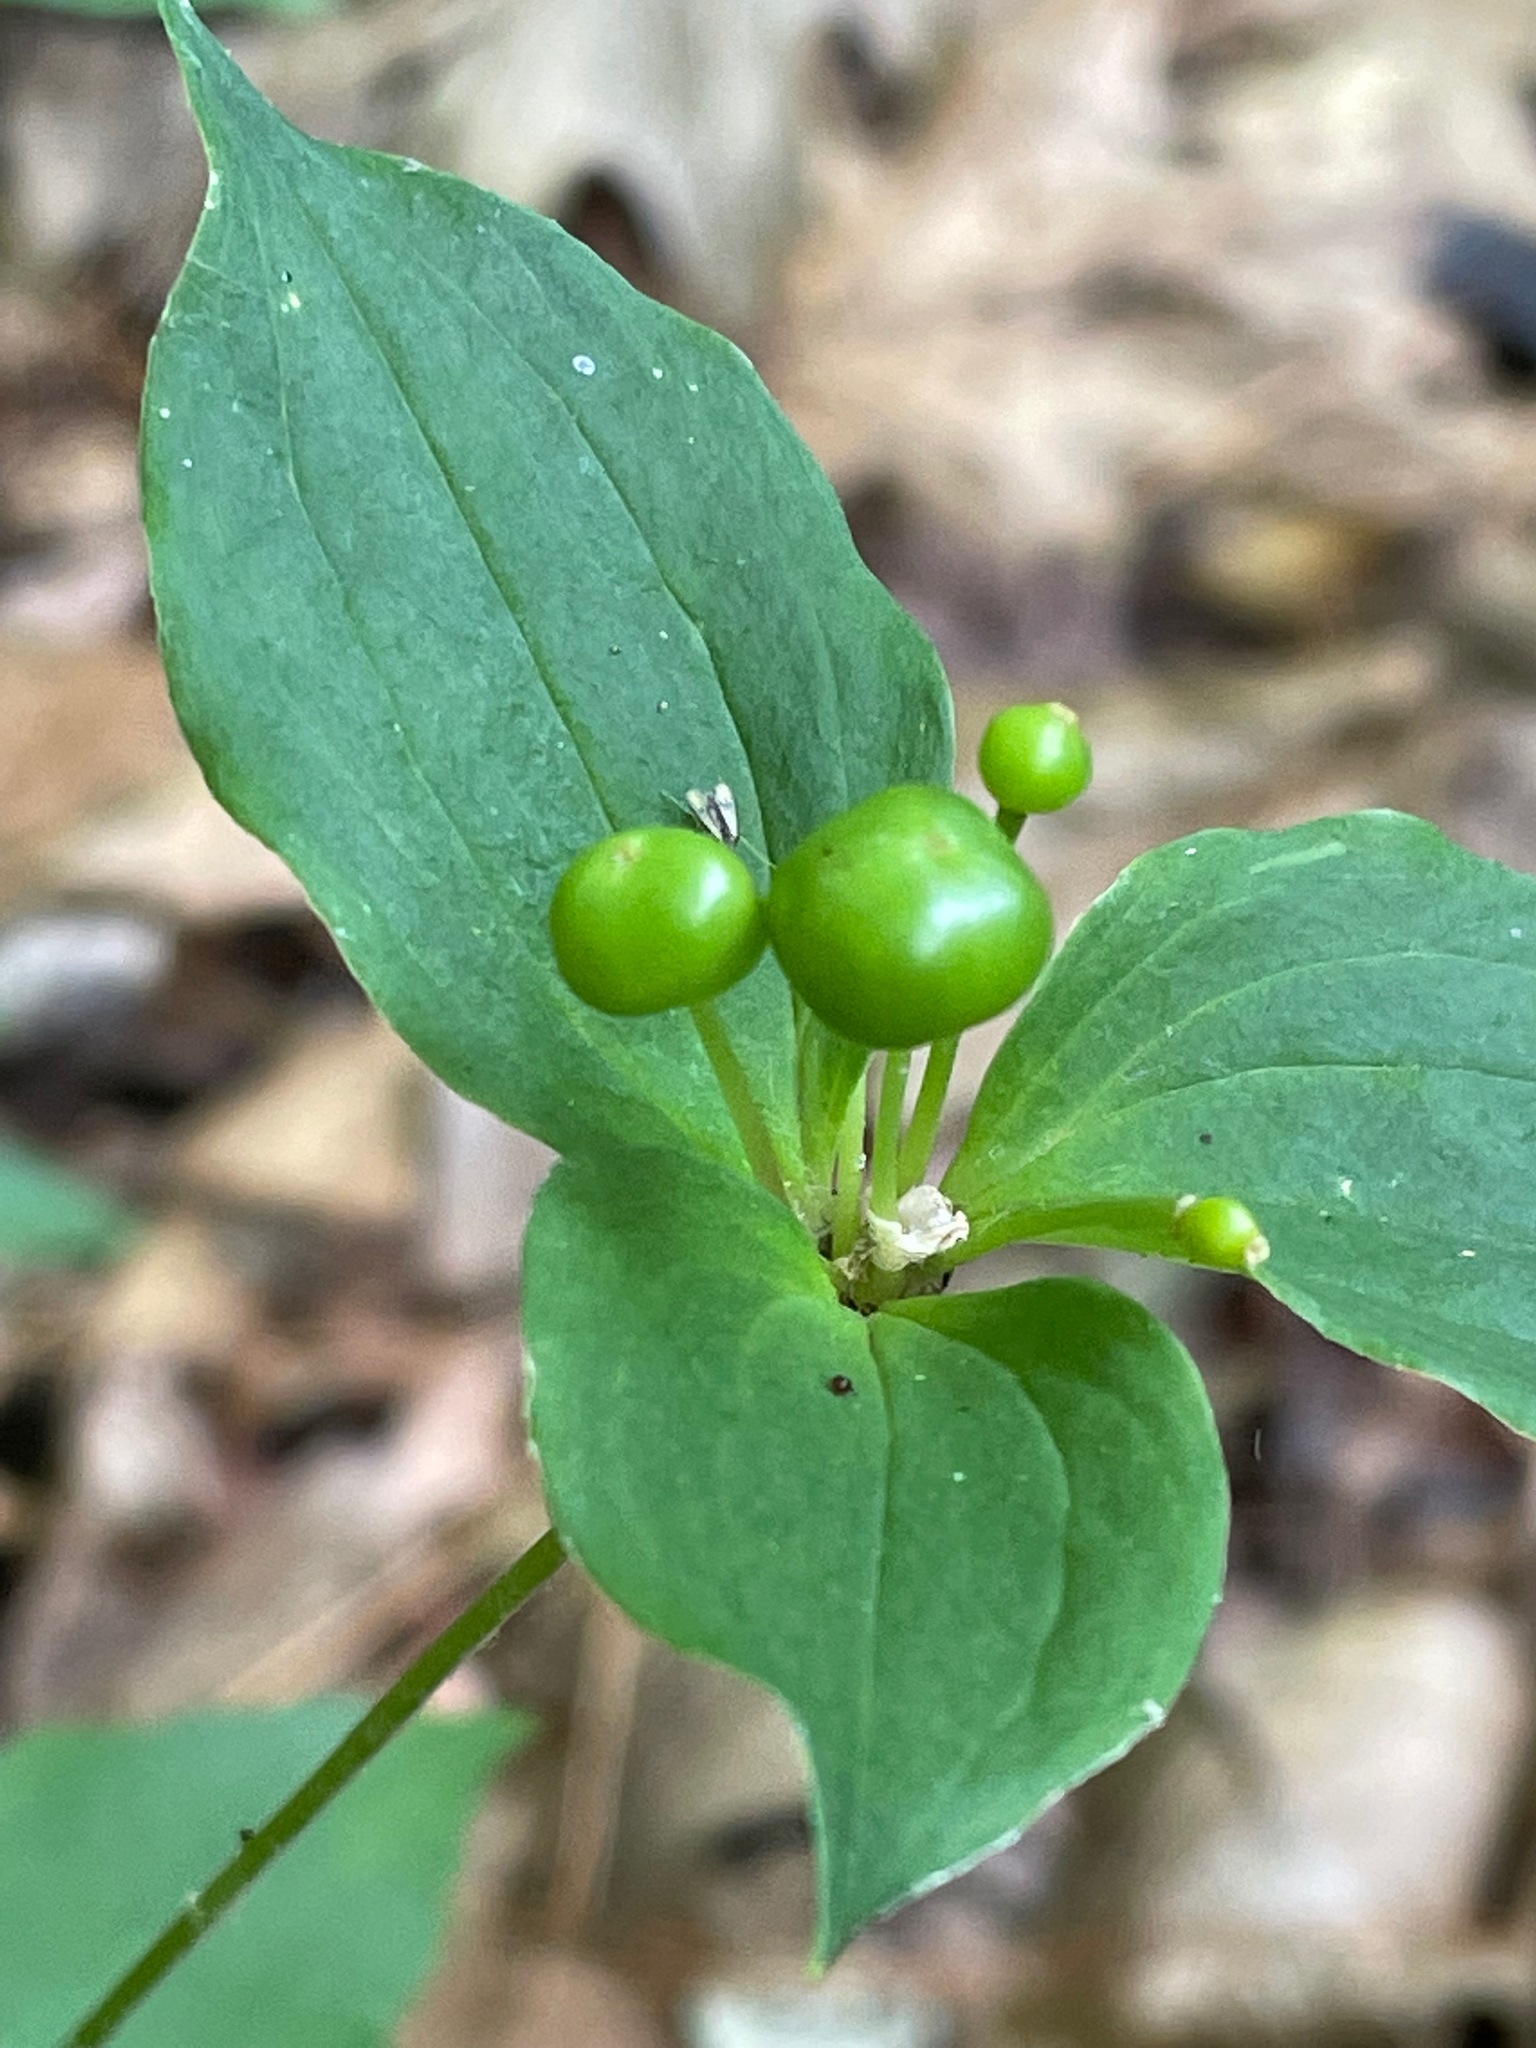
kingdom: Plantae
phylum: Tracheophyta
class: Liliopsida
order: Liliales
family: Liliaceae
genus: Medeola
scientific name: Medeola virginiana
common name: Indian cucumber-root
